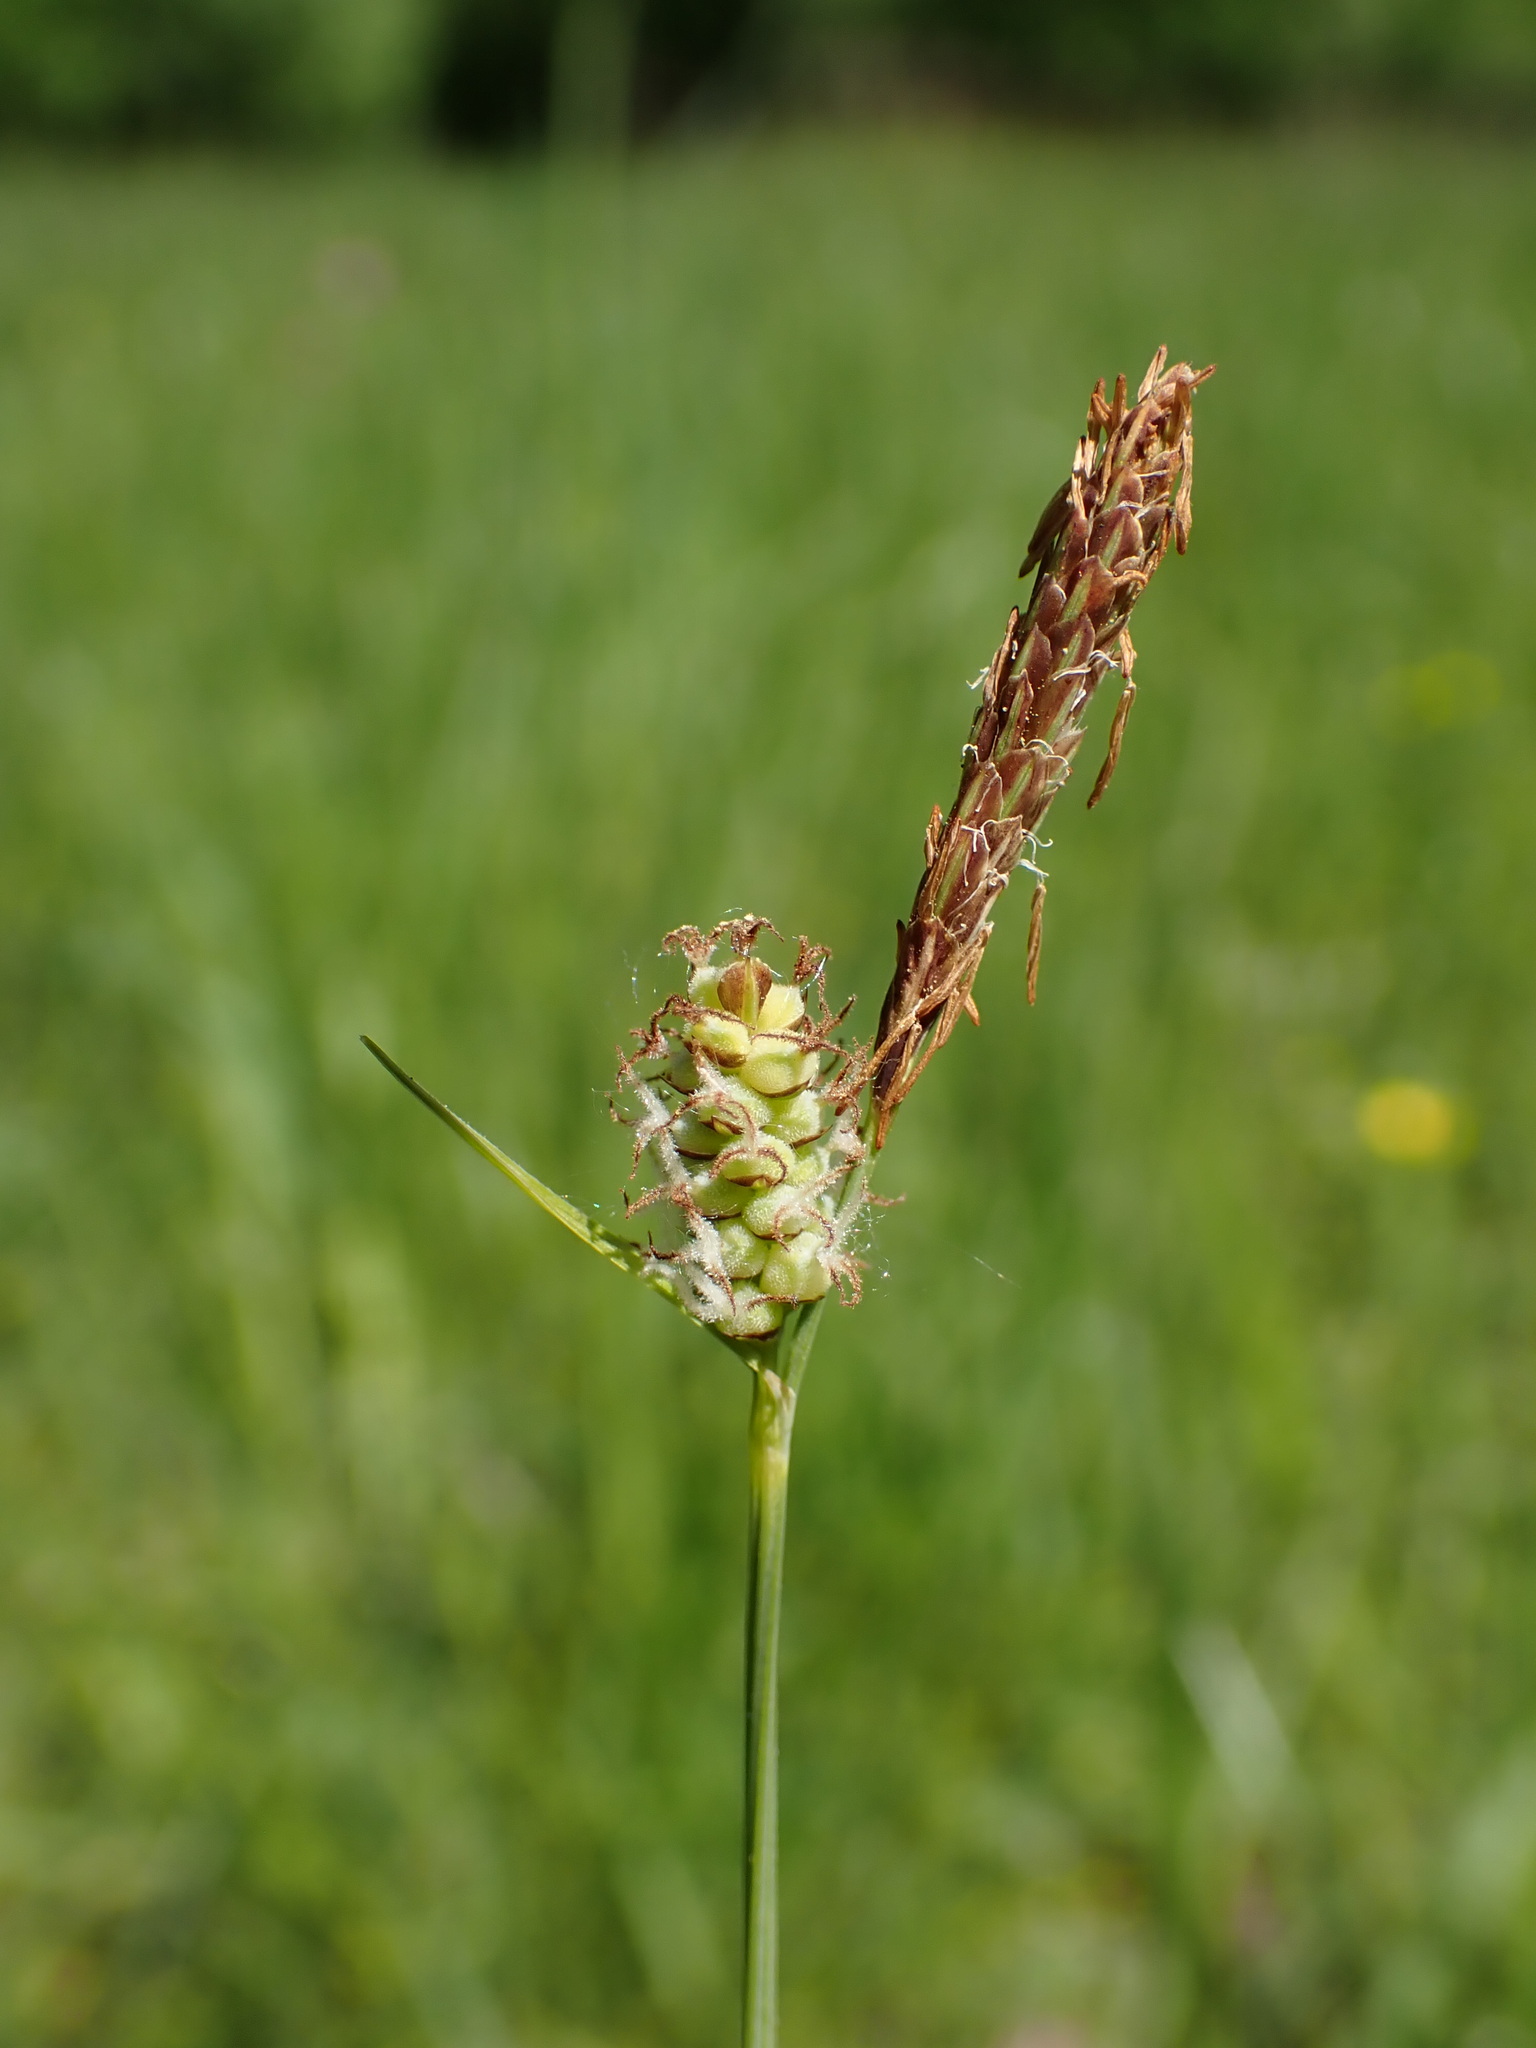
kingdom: Plantae
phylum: Tracheophyta
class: Liliopsida
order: Poales
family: Cyperaceae
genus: Carex
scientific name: Carex tomentosa
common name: Downy-fruited sedge
